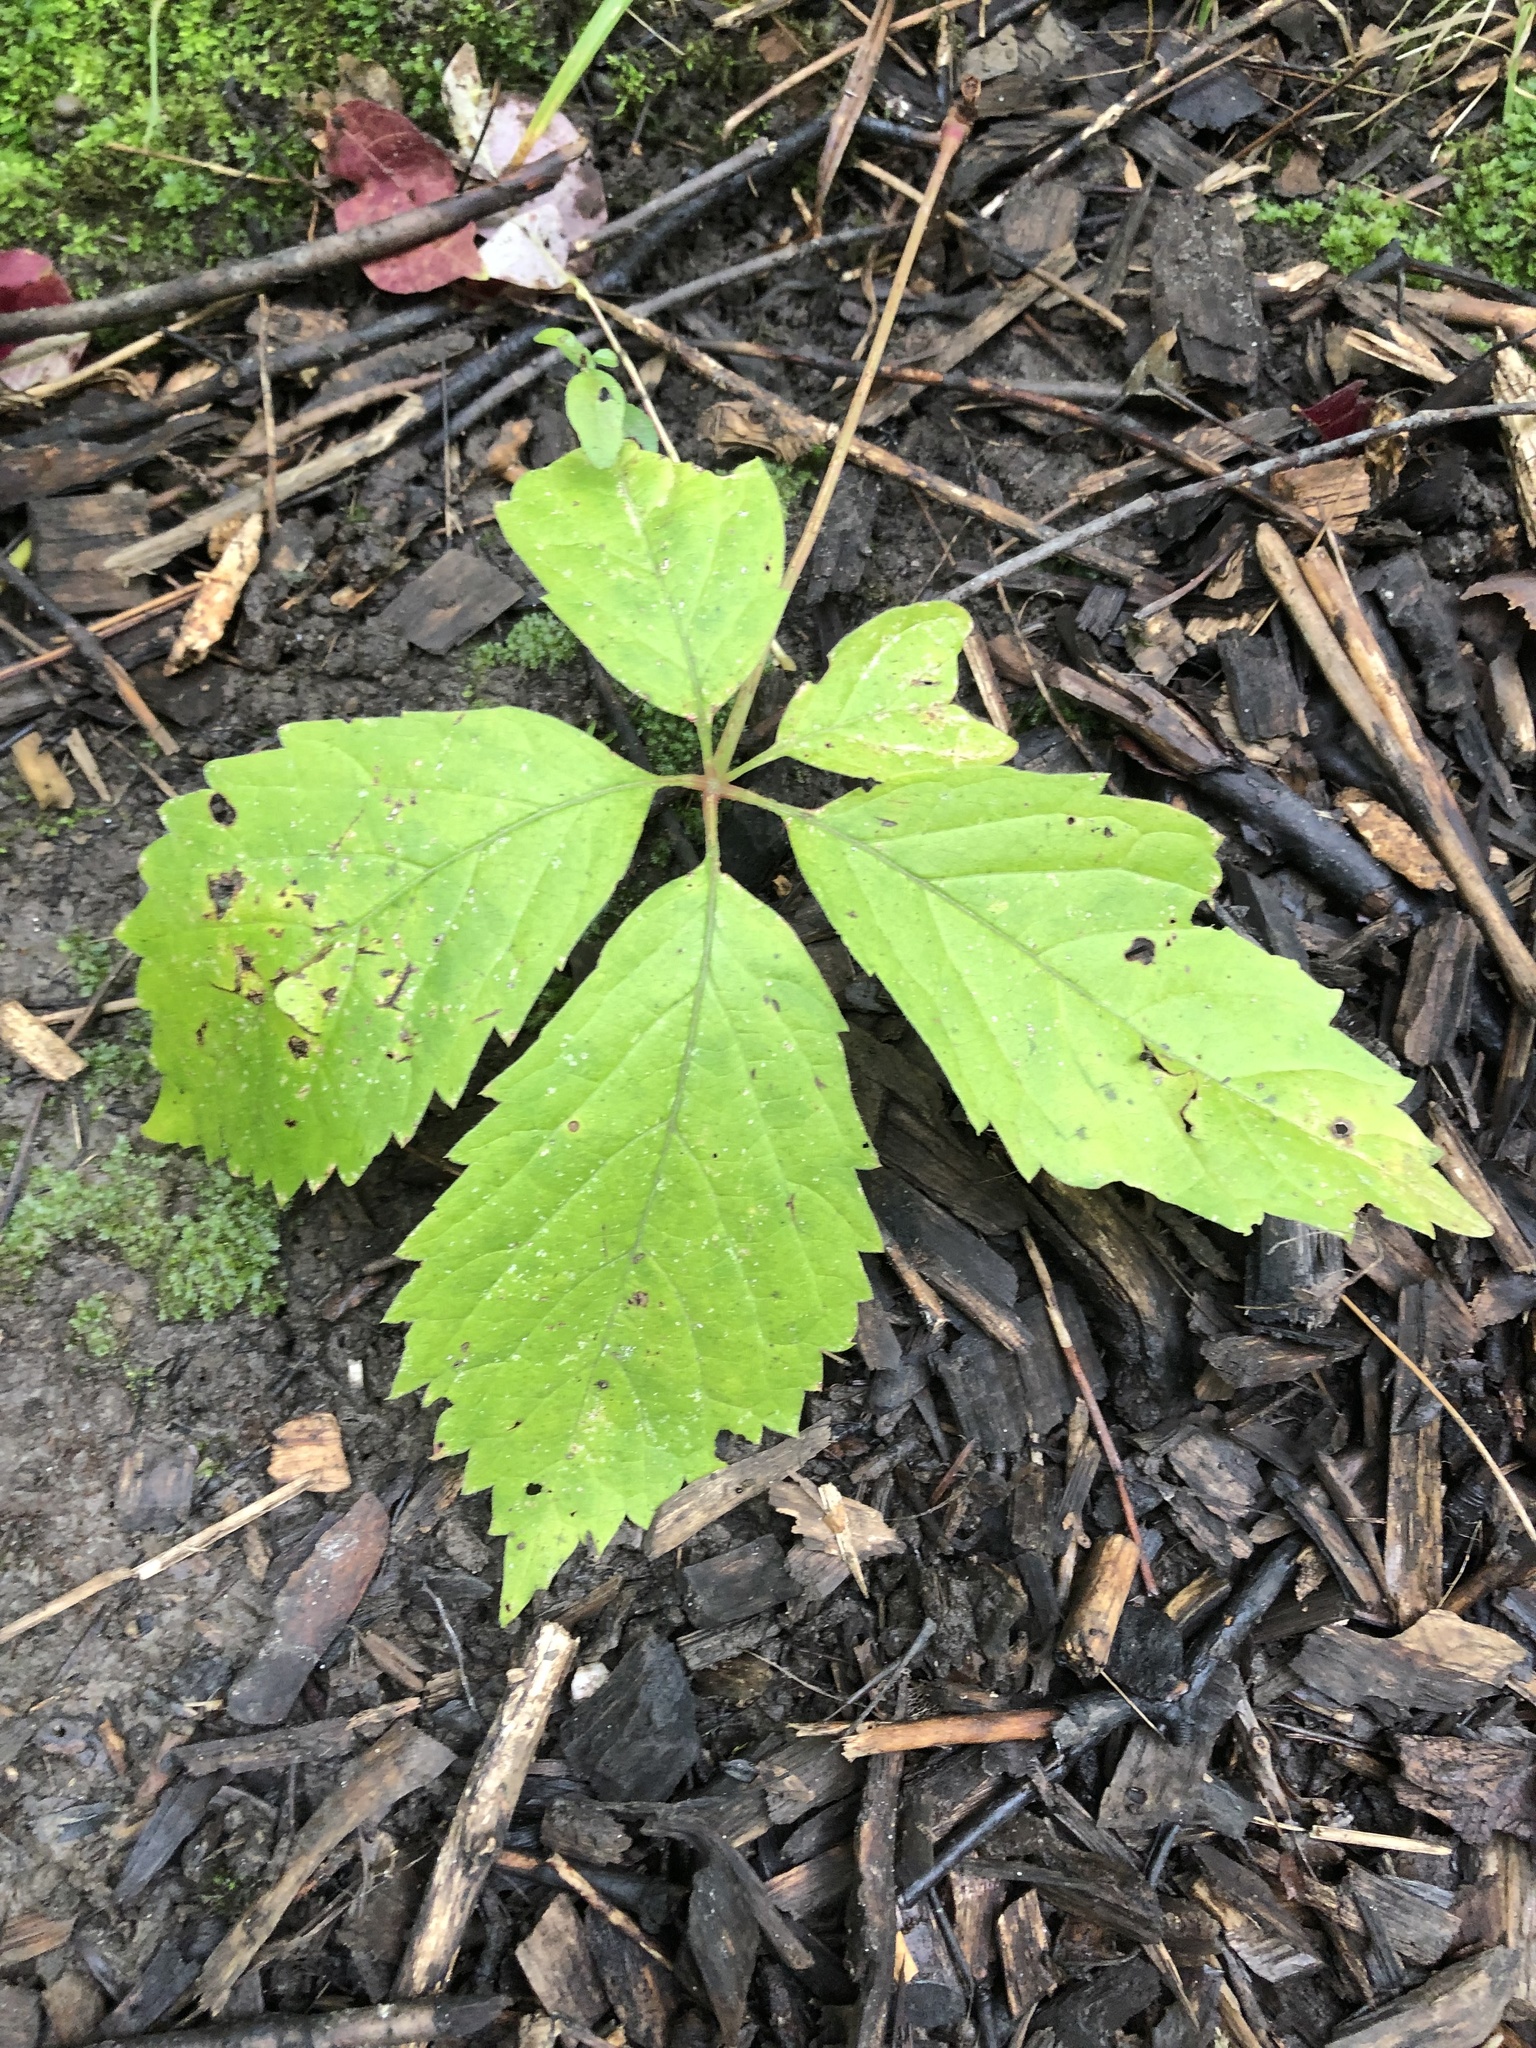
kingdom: Plantae
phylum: Tracheophyta
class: Magnoliopsida
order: Vitales
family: Vitaceae
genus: Parthenocissus
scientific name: Parthenocissus inserta
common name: False virginia-creeper
